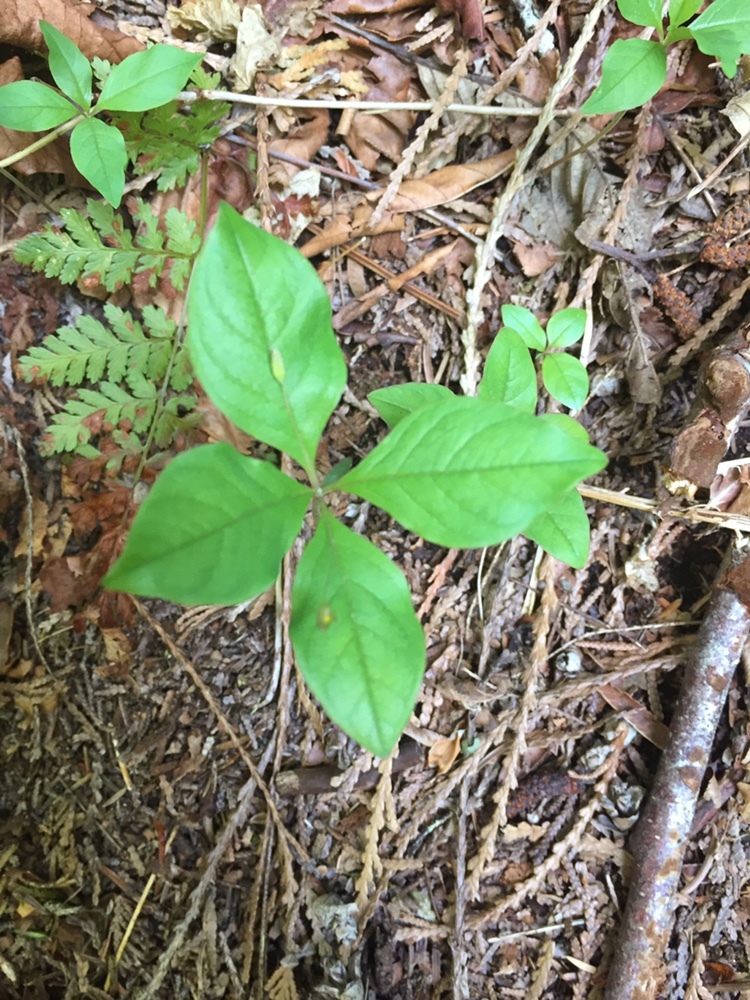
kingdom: Plantae
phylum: Tracheophyta
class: Magnoliopsida
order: Ericales
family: Primulaceae
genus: Lysimachia
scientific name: Lysimachia latifolia
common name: Pacific starflower
